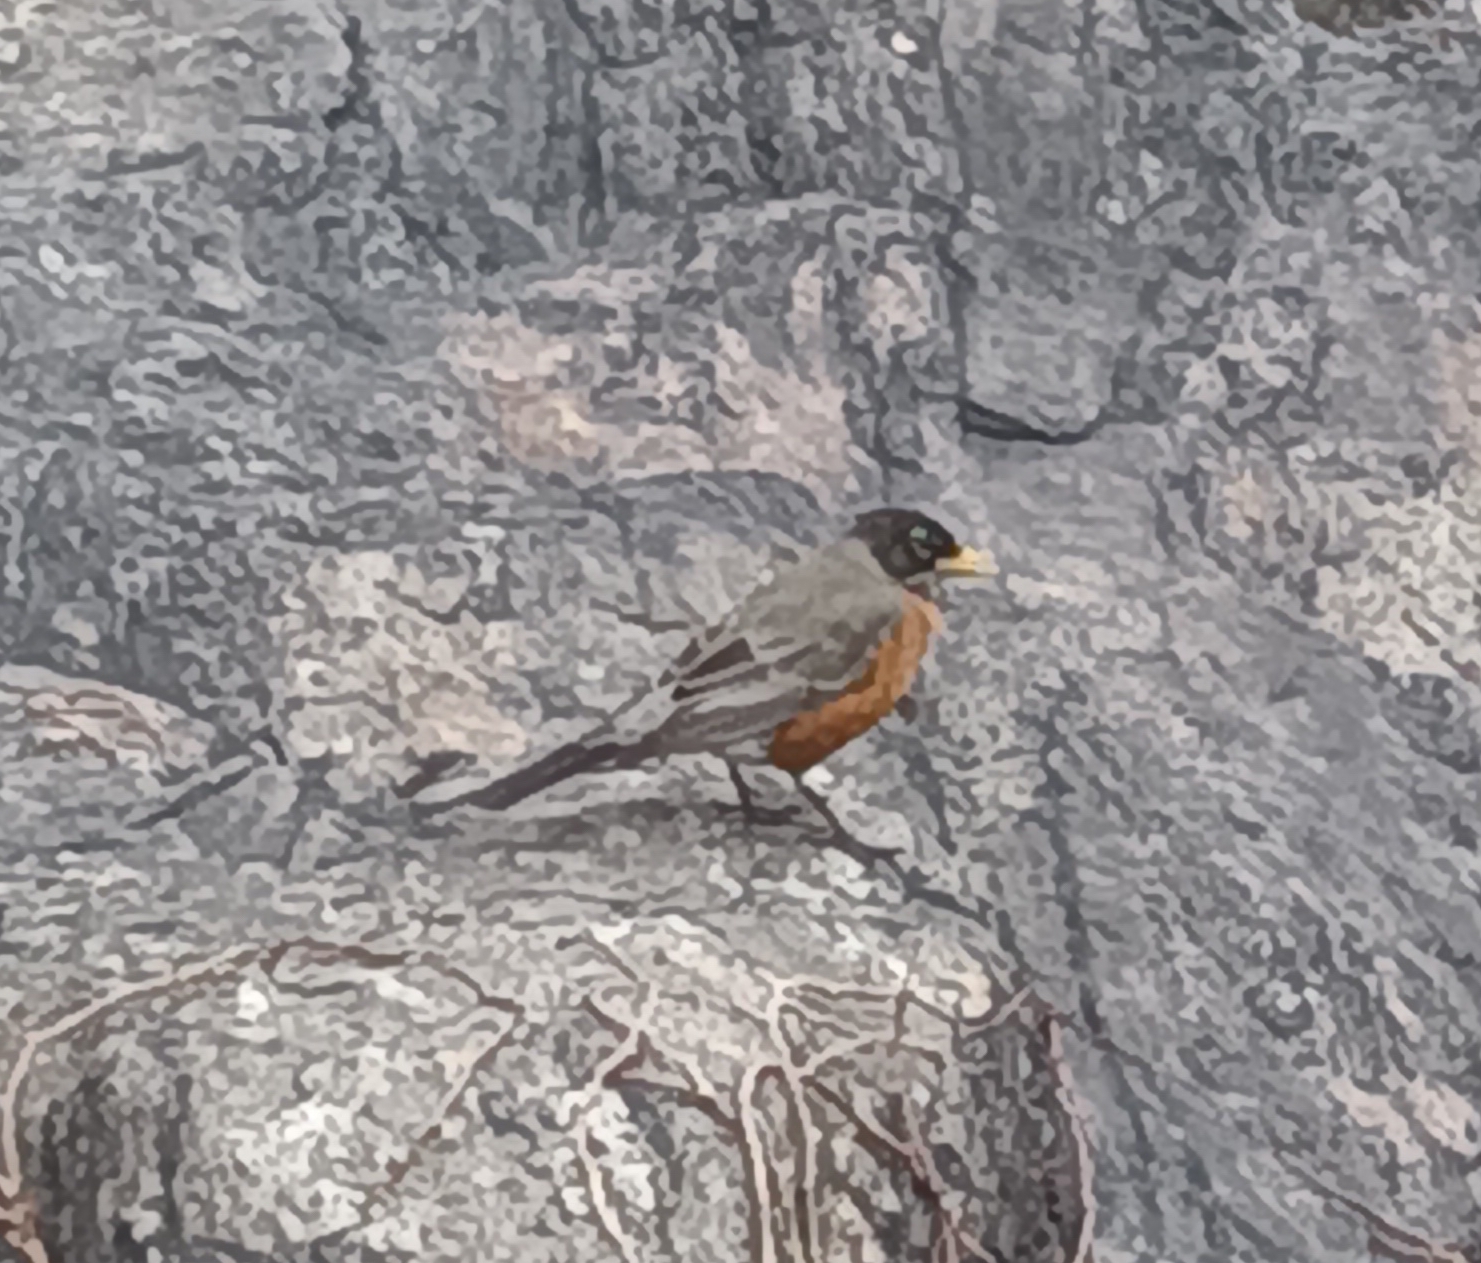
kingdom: Animalia
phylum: Chordata
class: Aves
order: Passeriformes
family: Turdidae
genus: Turdus
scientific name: Turdus migratorius
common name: American robin
